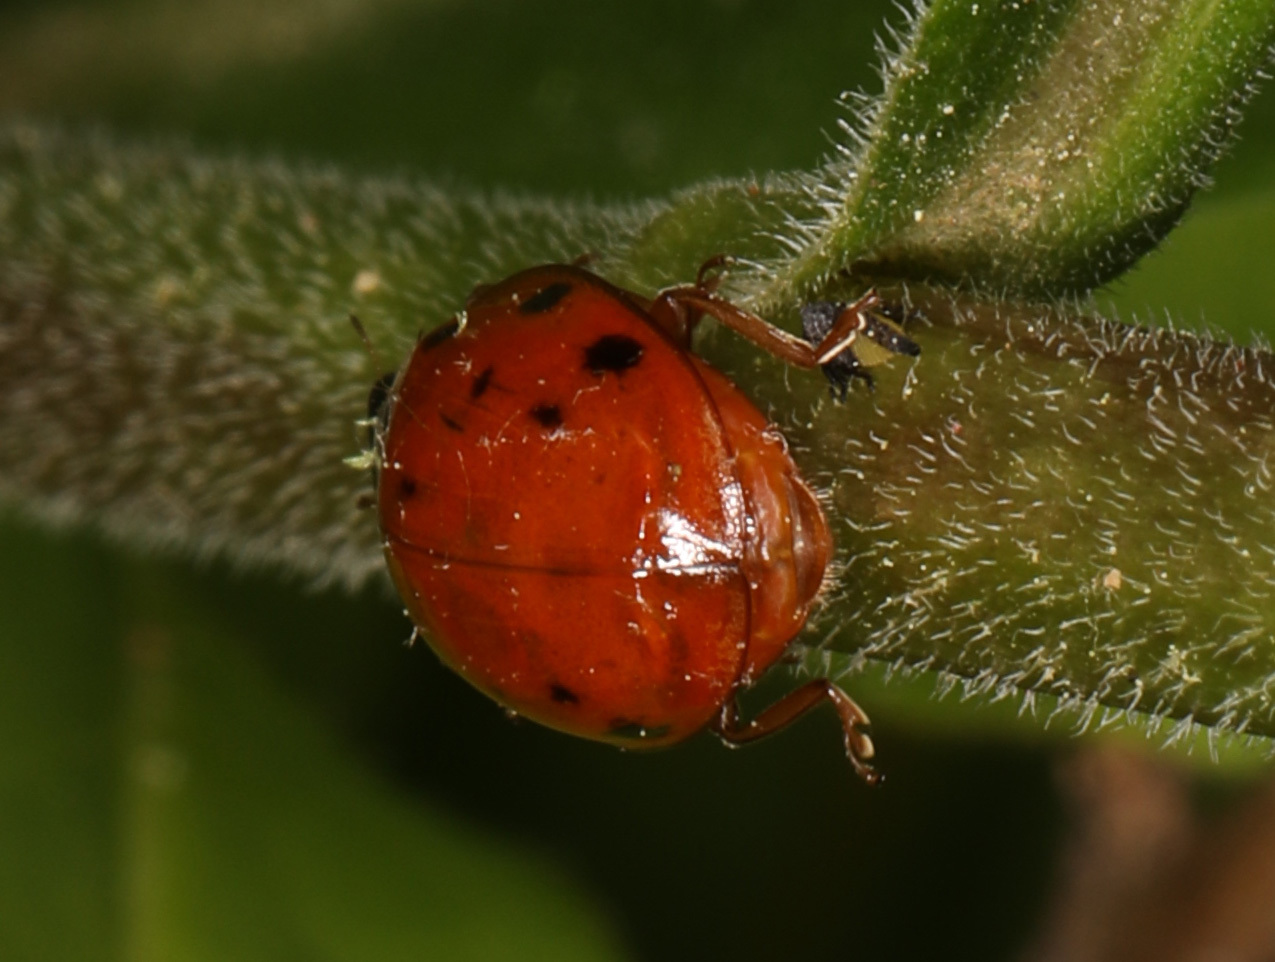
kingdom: Animalia
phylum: Arthropoda
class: Insecta
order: Coleoptera
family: Coccinellidae
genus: Harmonia
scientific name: Harmonia axyridis
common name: Harlequin ladybird
